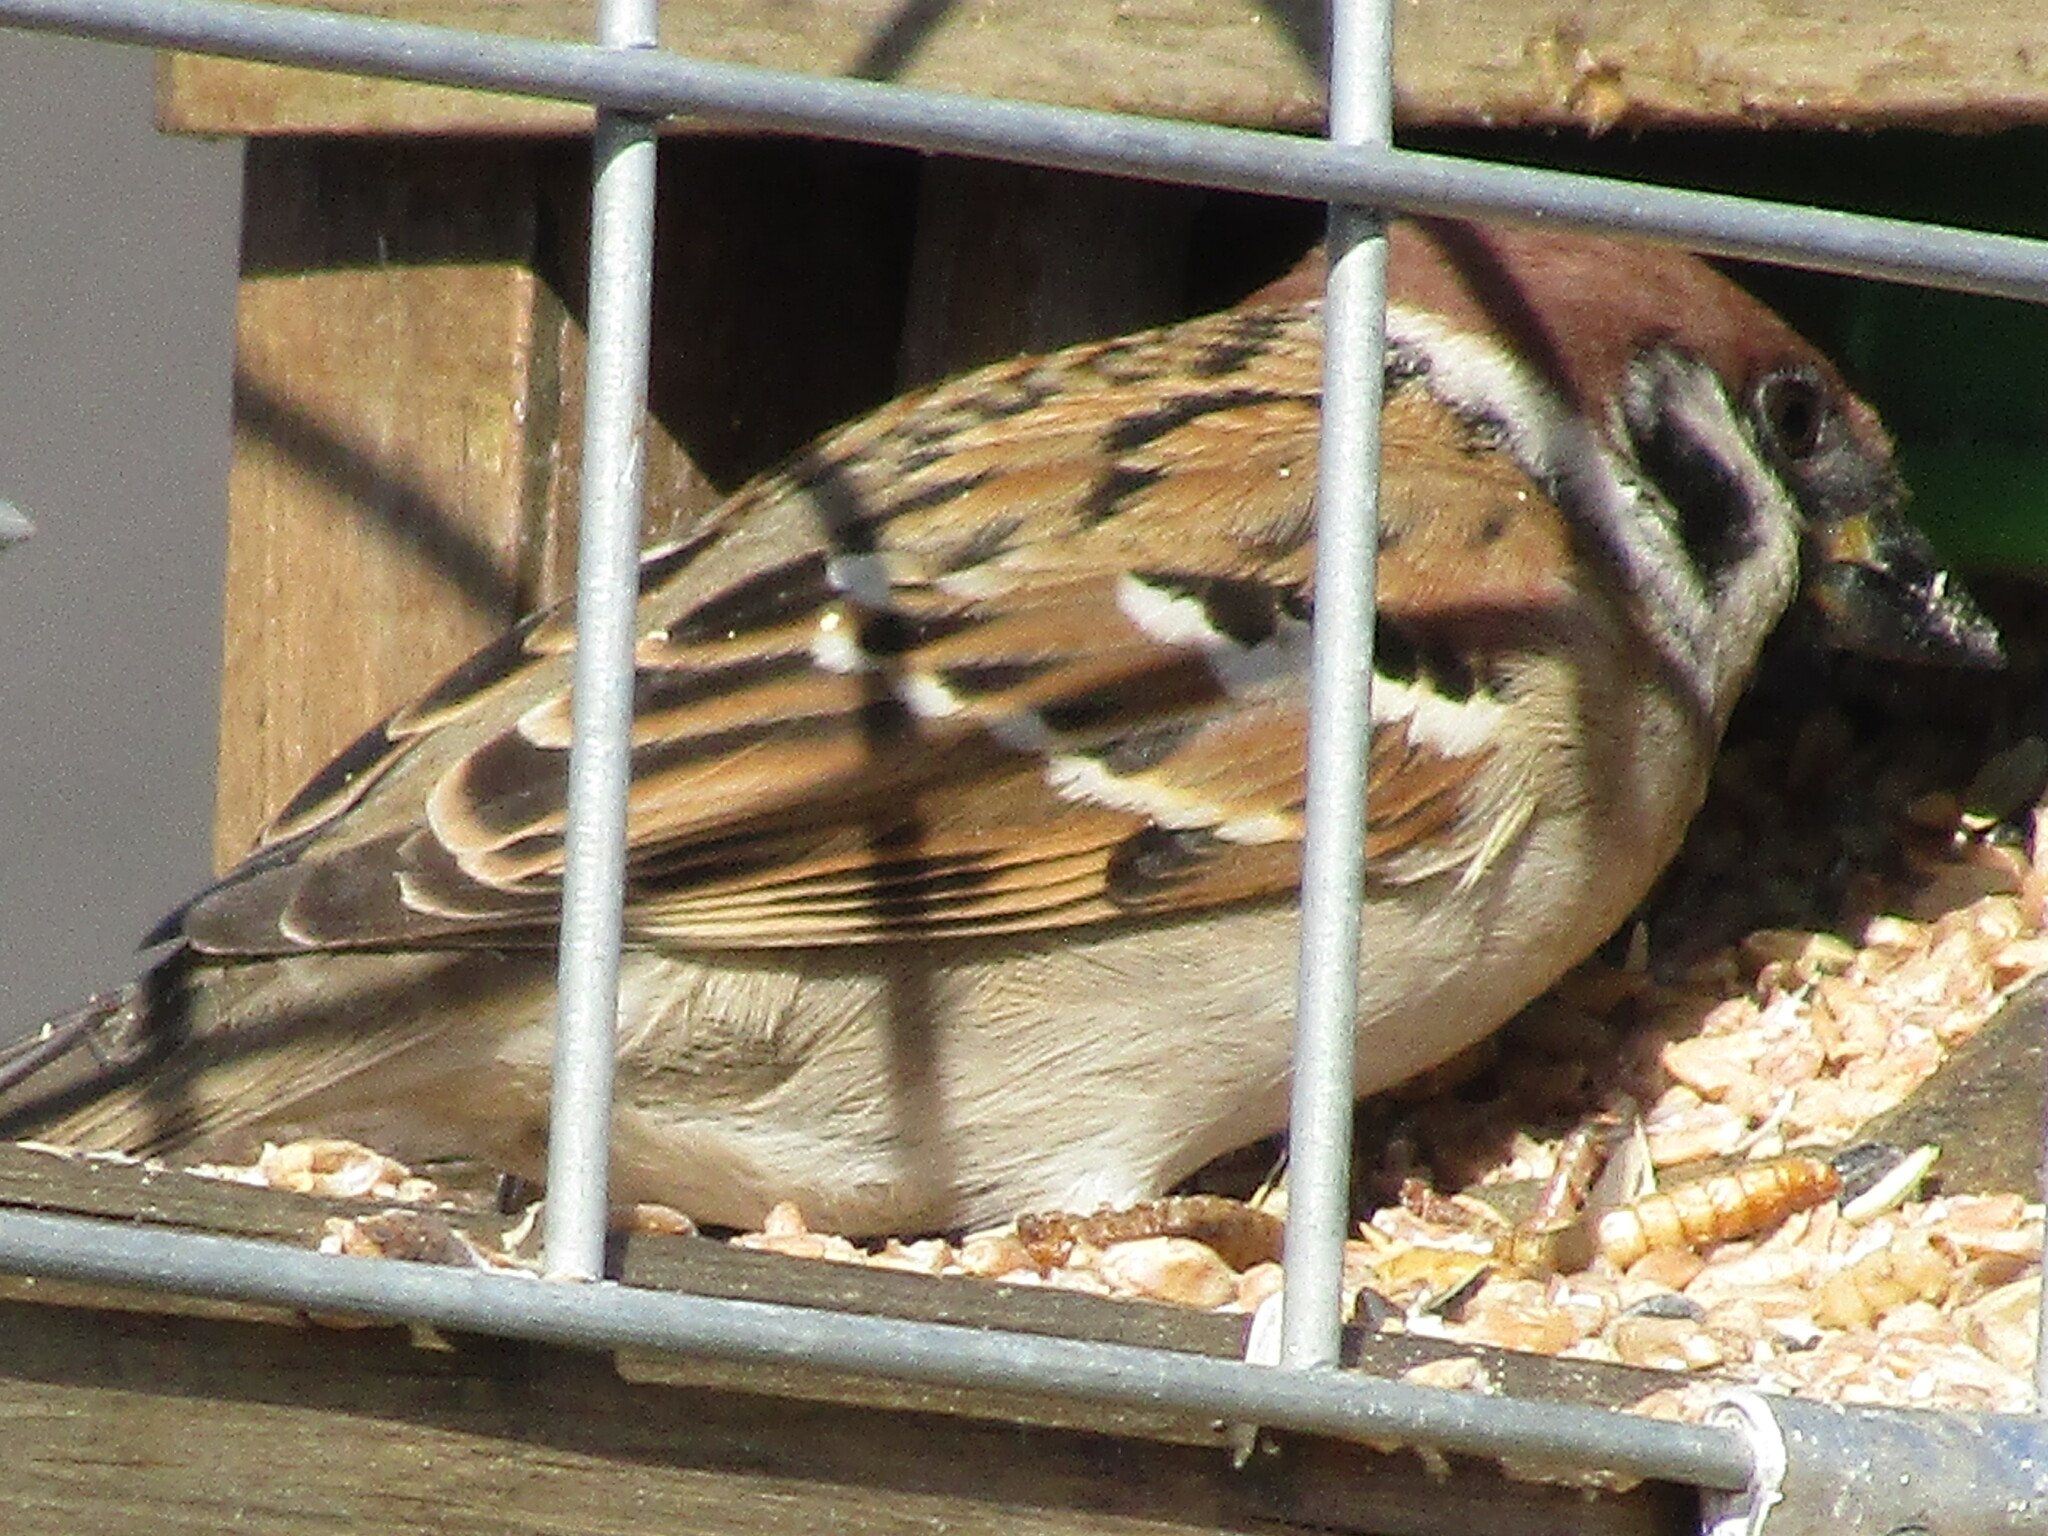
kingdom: Animalia
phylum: Chordata
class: Aves
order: Passeriformes
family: Passeridae
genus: Passer
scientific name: Passer montanus
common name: Eurasian tree sparrow
